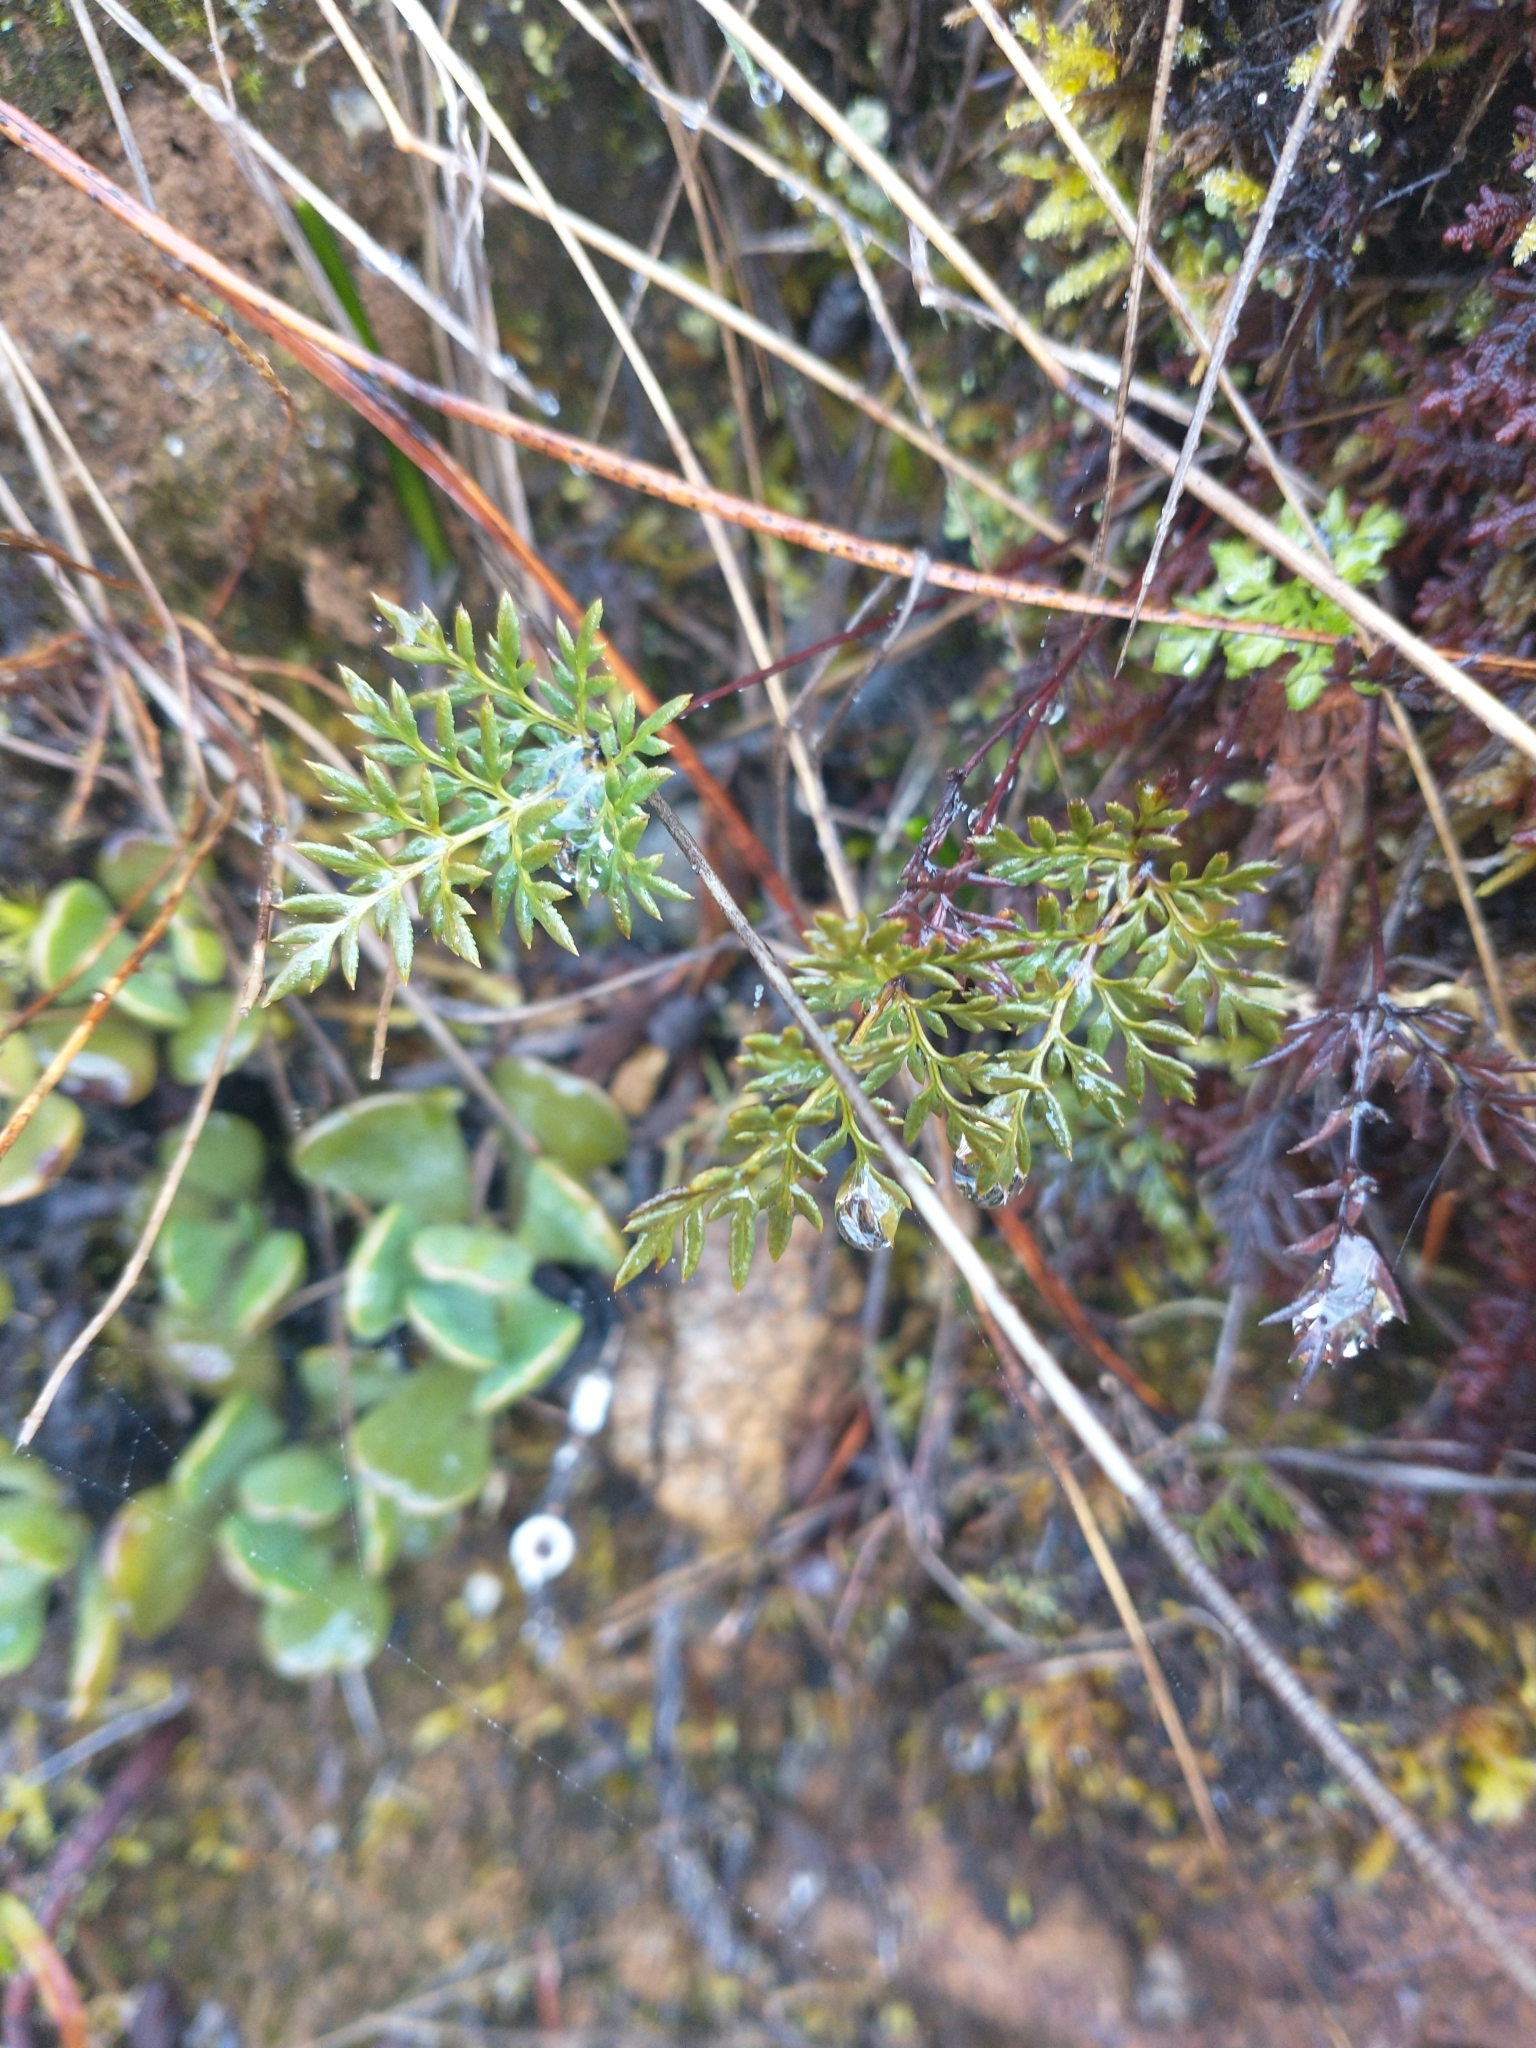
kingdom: Plantae
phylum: Tracheophyta
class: Polypodiopsida
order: Polypodiales
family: Pteridaceae
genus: Aspidotis
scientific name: Aspidotis densa
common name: Indian's dream
